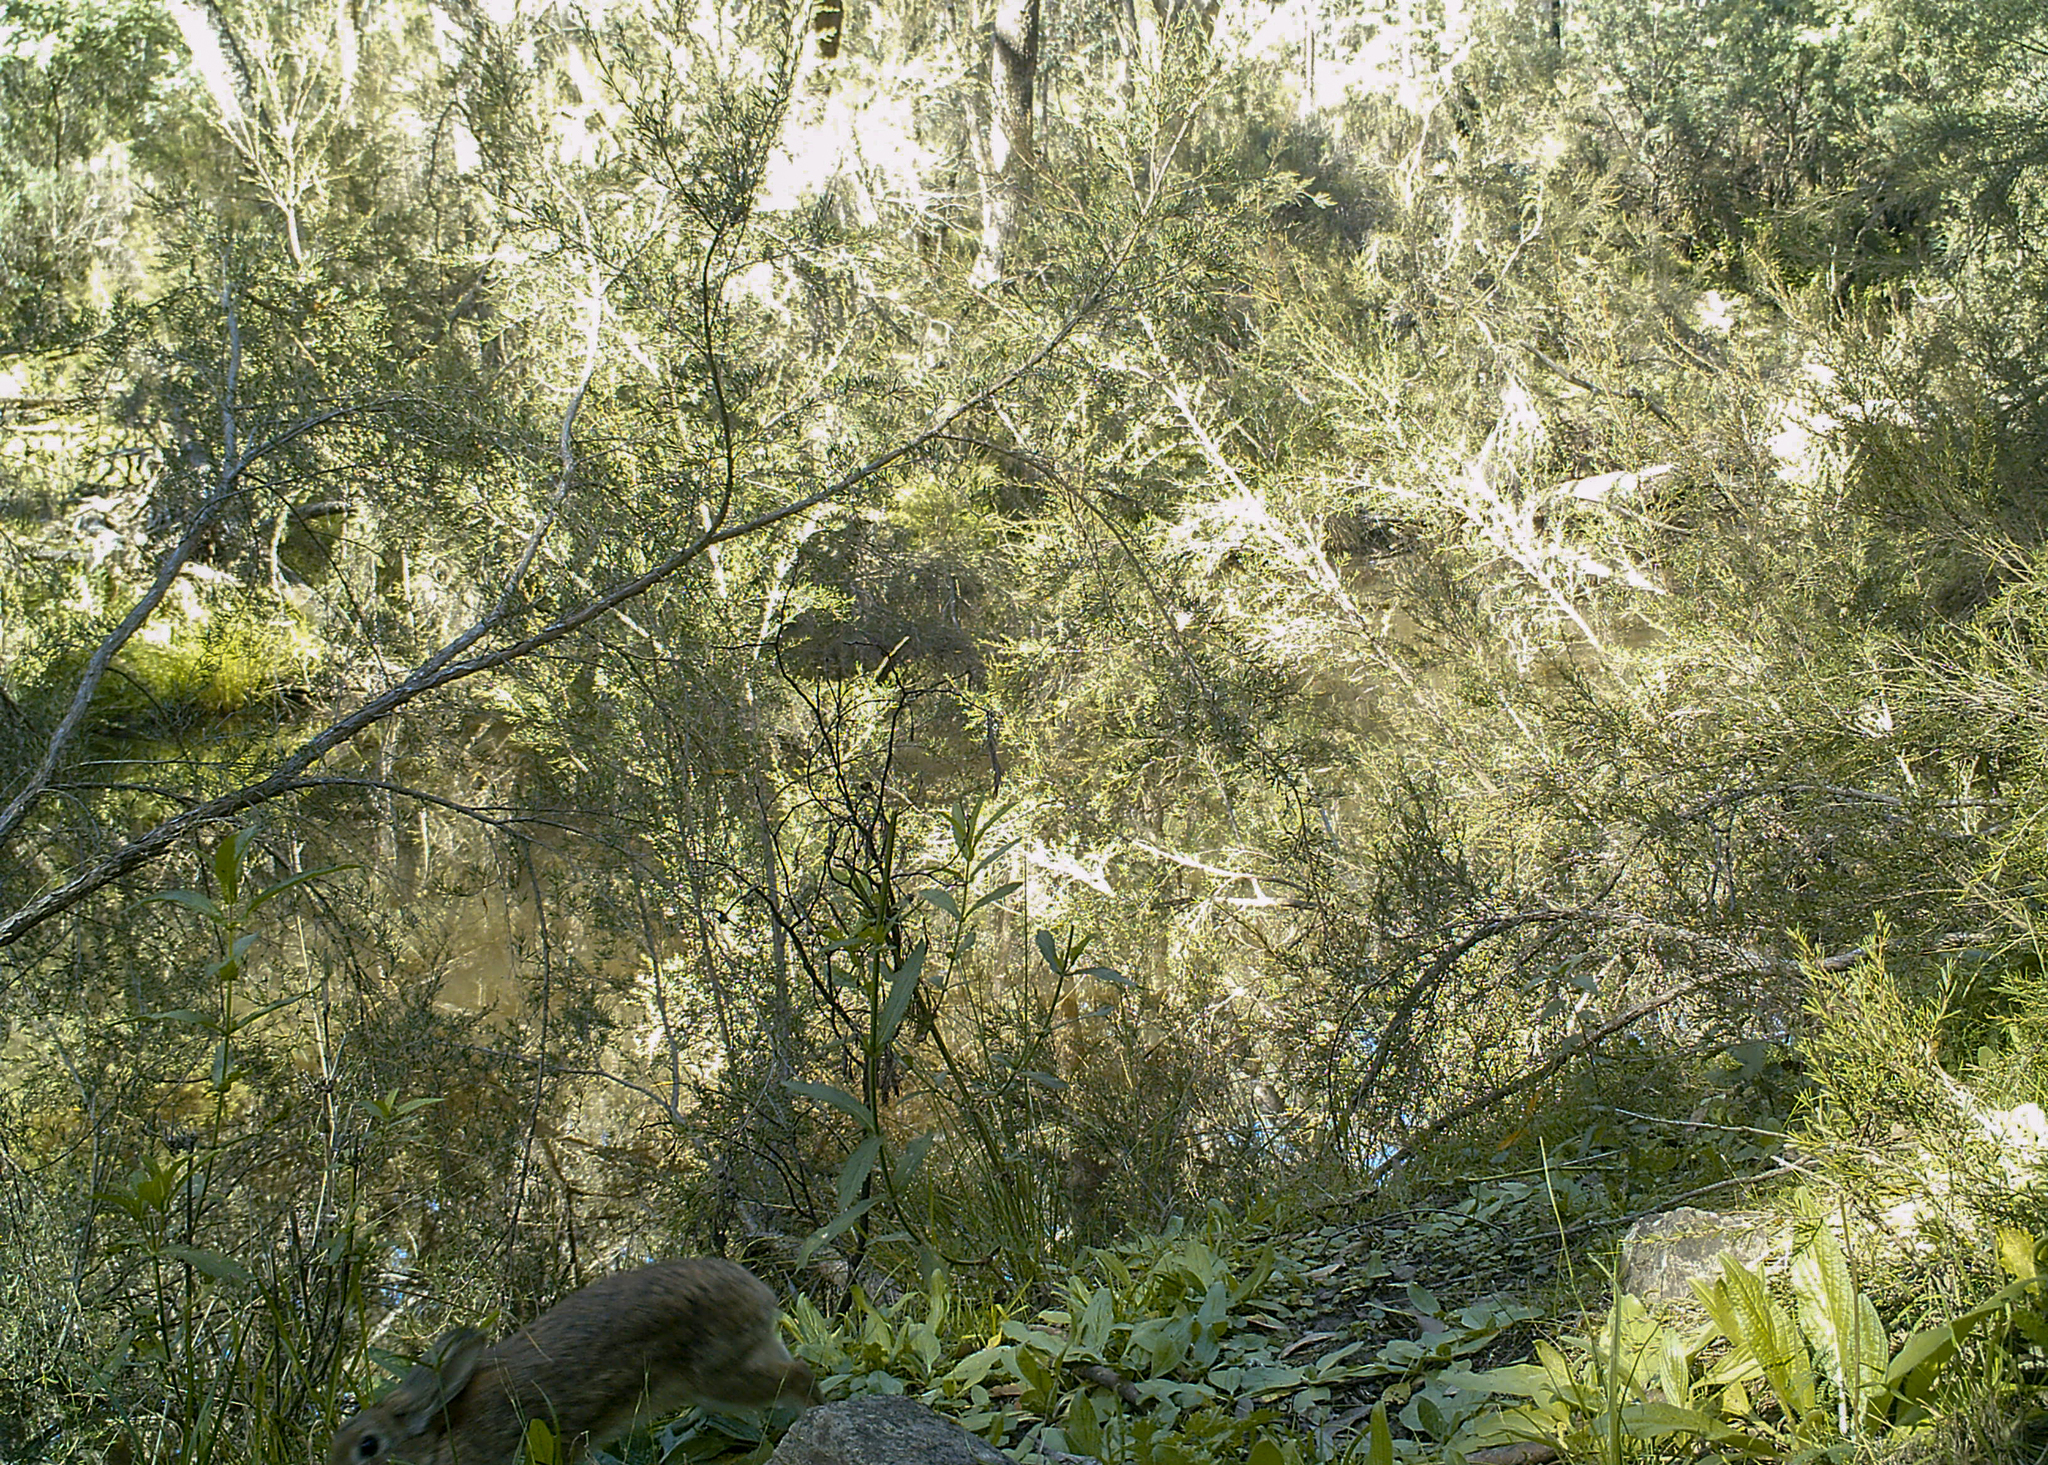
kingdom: Animalia
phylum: Chordata
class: Mammalia
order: Lagomorpha
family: Leporidae
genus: Oryctolagus
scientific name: Oryctolagus cuniculus
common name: European rabbit
